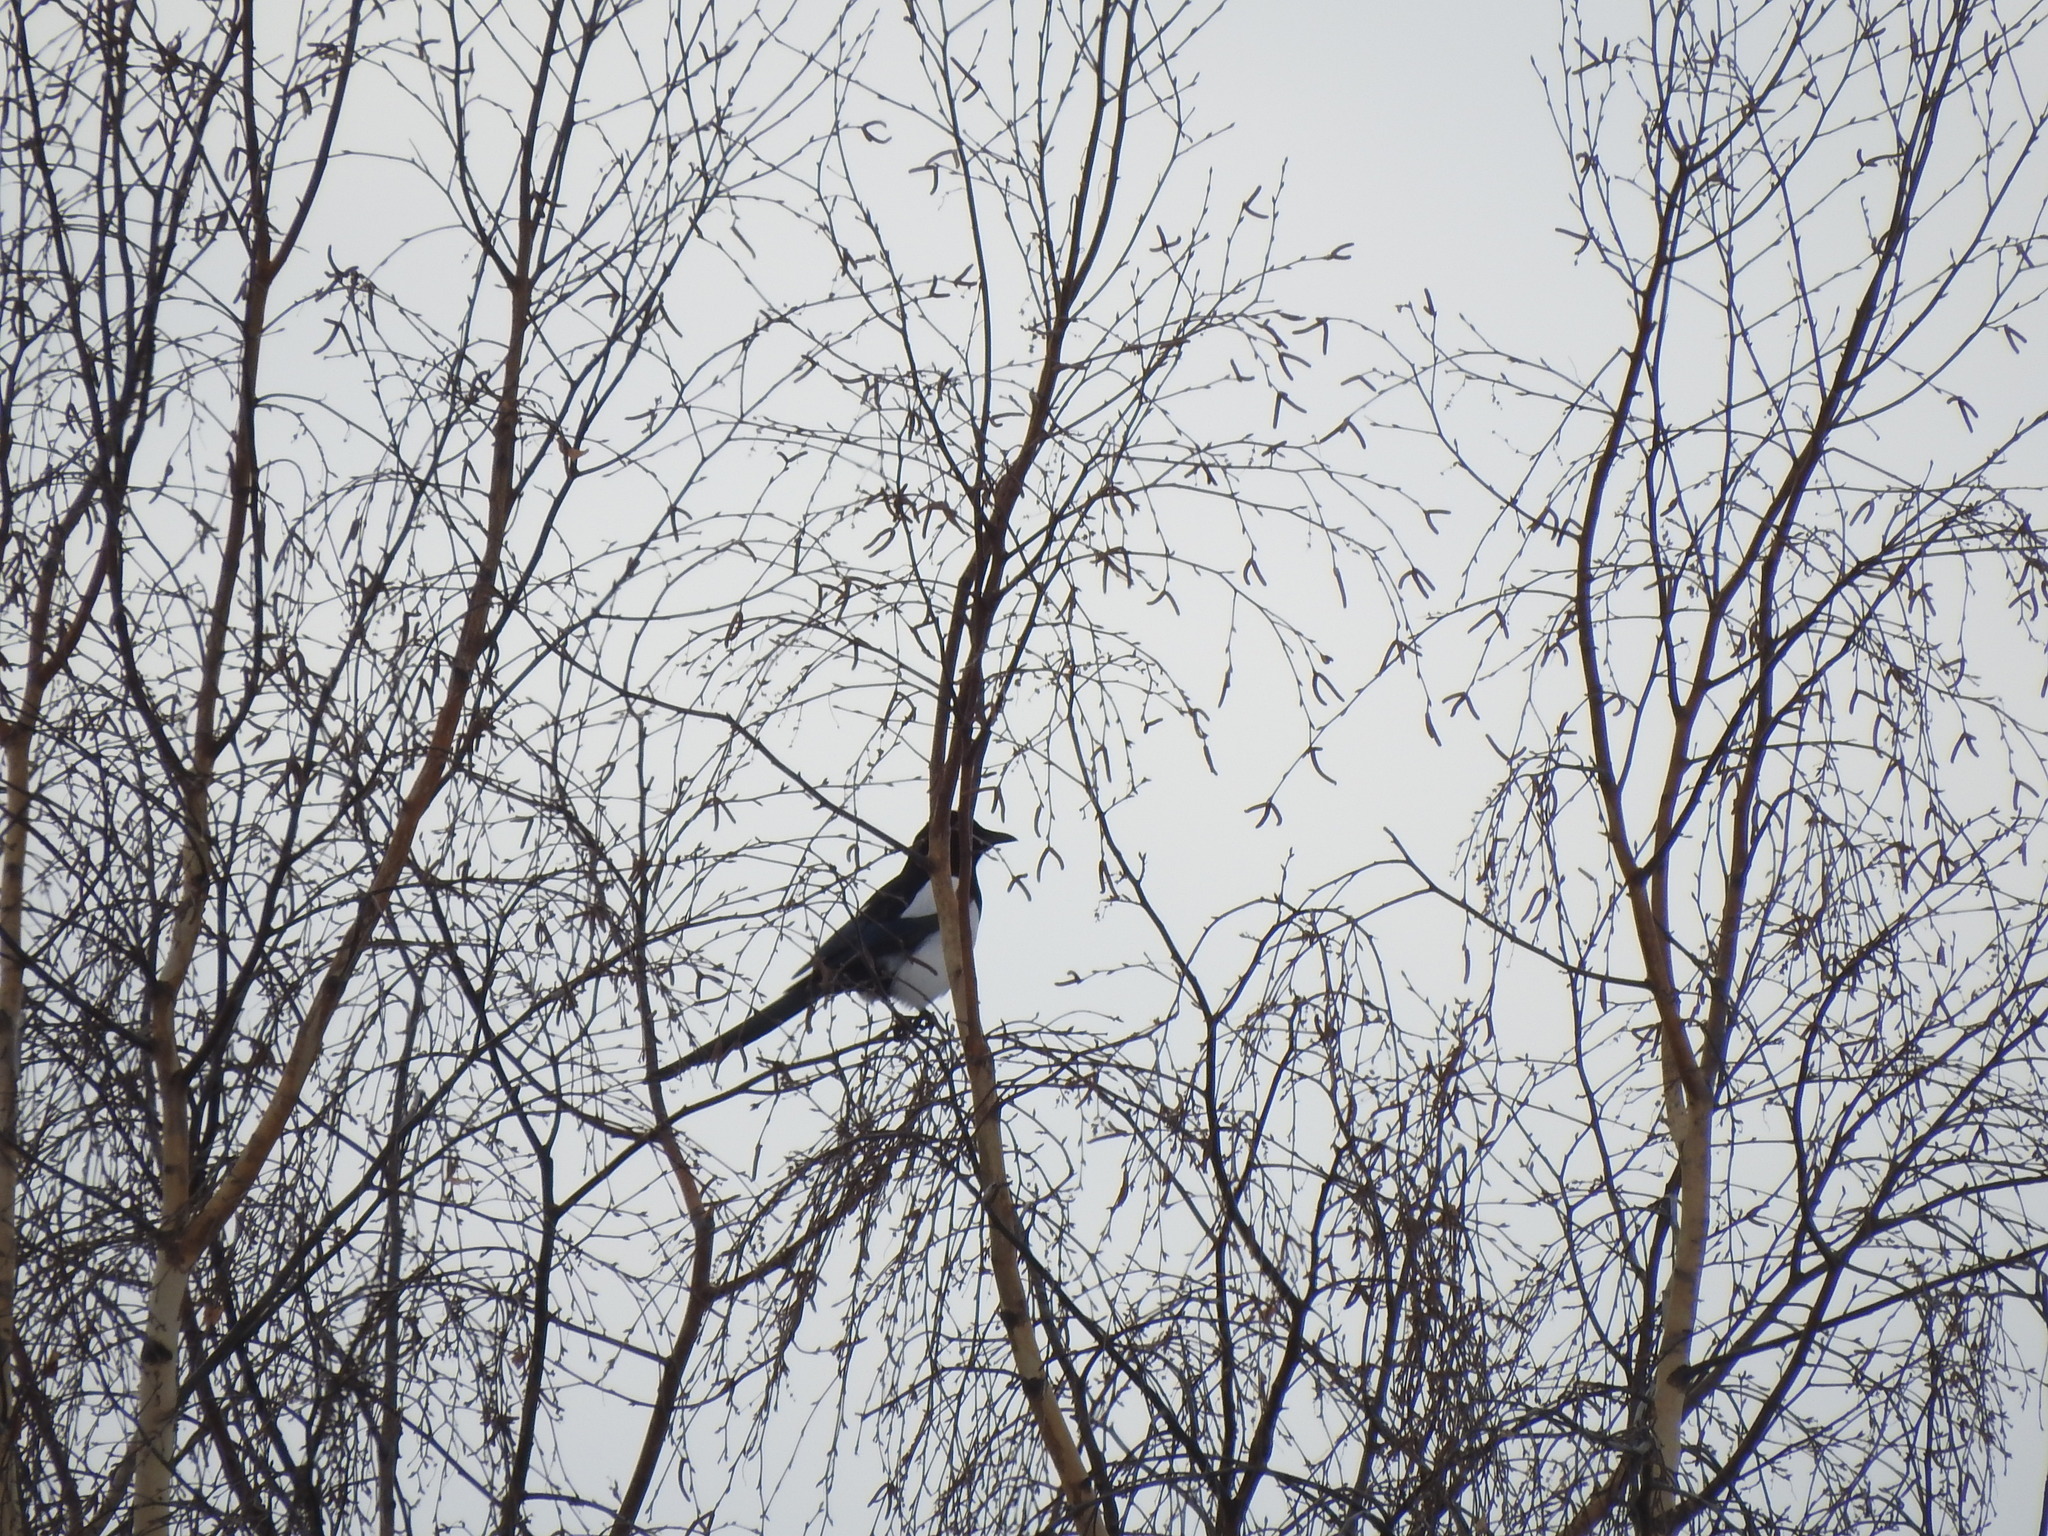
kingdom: Animalia
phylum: Chordata
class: Aves
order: Passeriformes
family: Corvidae
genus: Pica
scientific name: Pica pica
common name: Eurasian magpie
